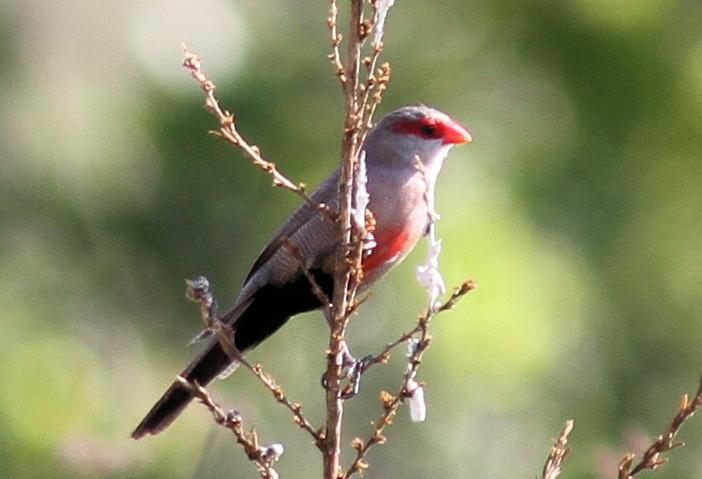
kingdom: Animalia
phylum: Chordata
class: Aves
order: Passeriformes
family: Estrildidae
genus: Estrilda
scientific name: Estrilda astrild
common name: Common waxbill
